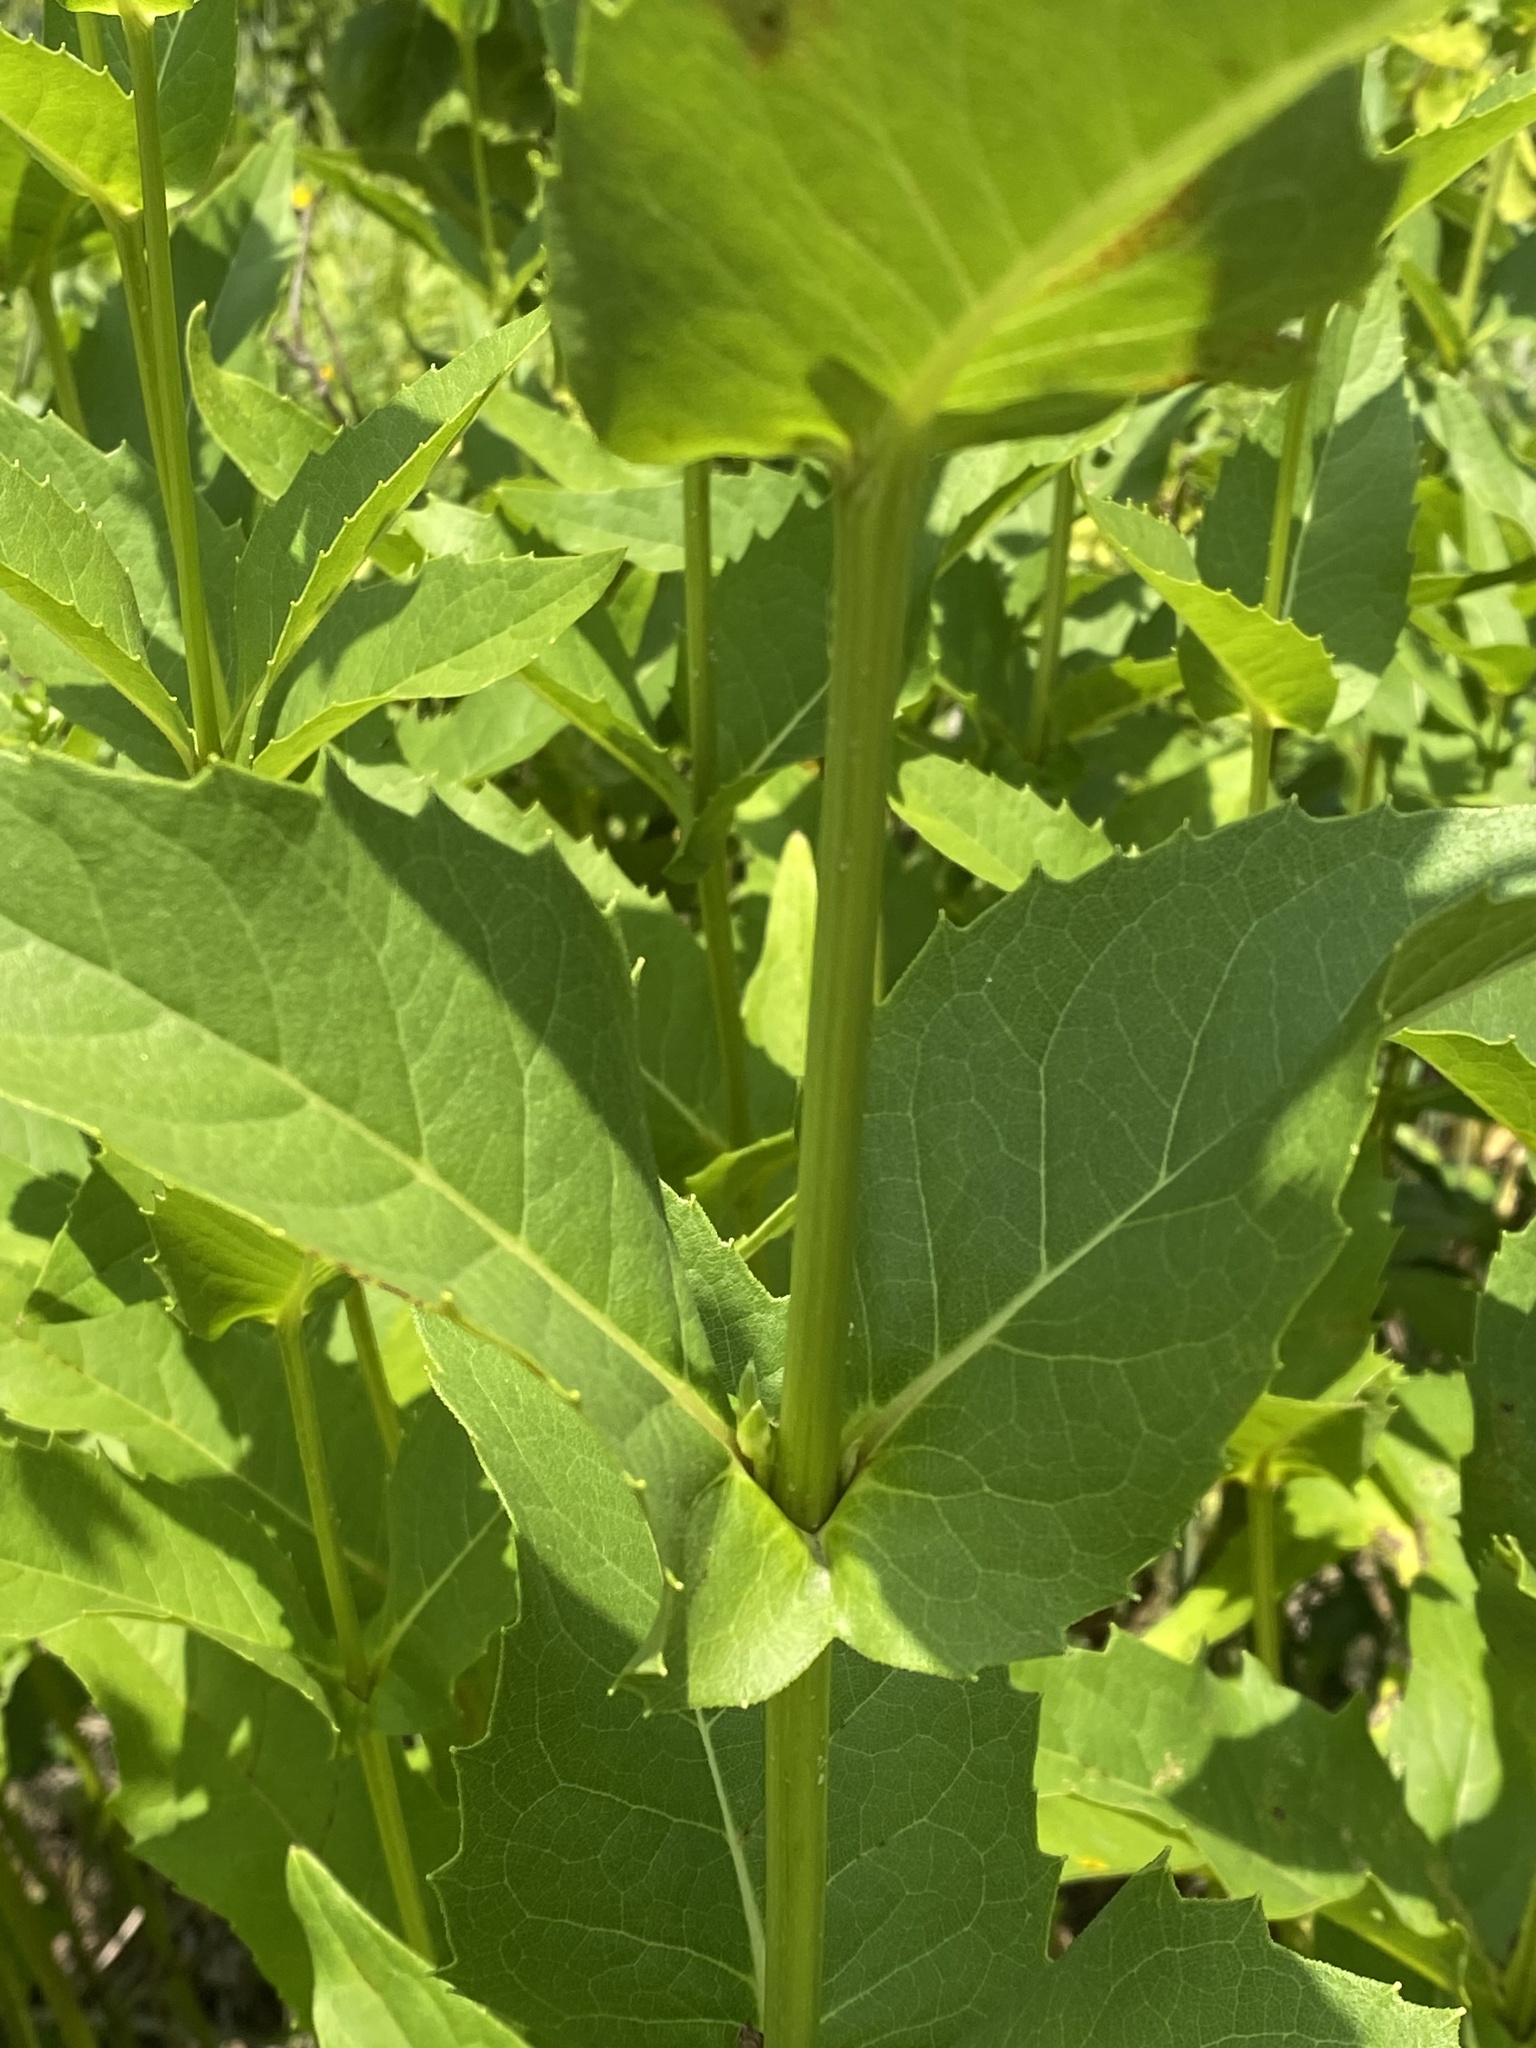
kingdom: Plantae
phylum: Tracheophyta
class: Magnoliopsida
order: Asterales
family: Asteraceae
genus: Silphium
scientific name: Silphium perfoliatum
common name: Cup-plant
